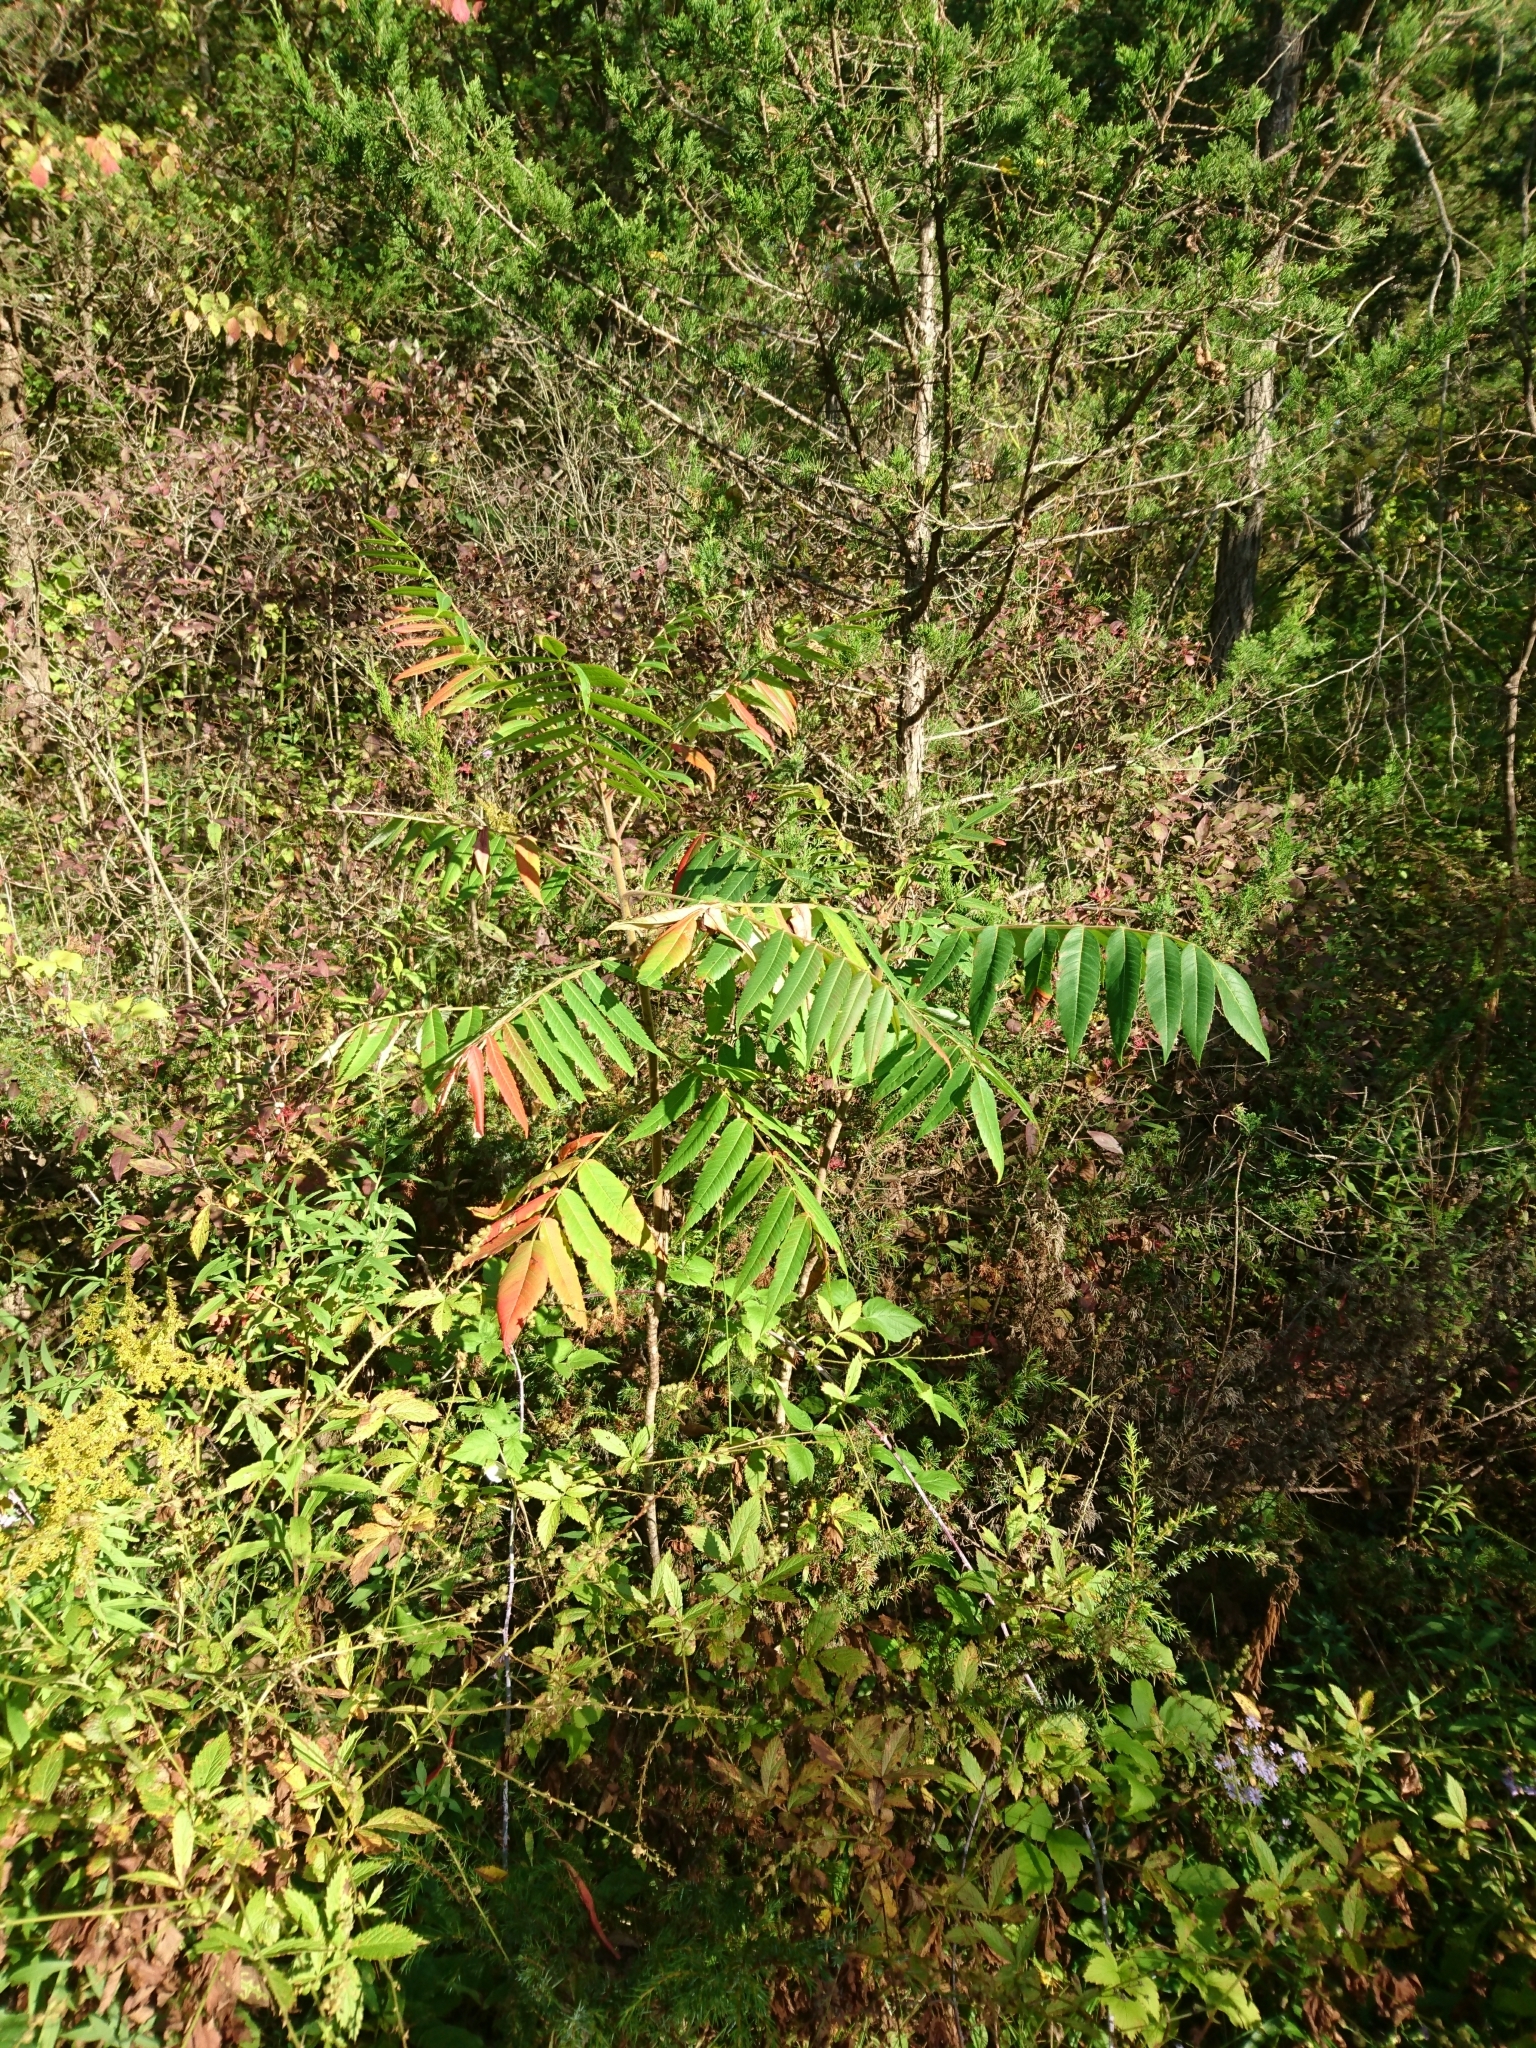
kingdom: Plantae
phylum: Tracheophyta
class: Magnoliopsida
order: Sapindales
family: Anacardiaceae
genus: Rhus
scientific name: Rhus typhina
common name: Staghorn sumac
